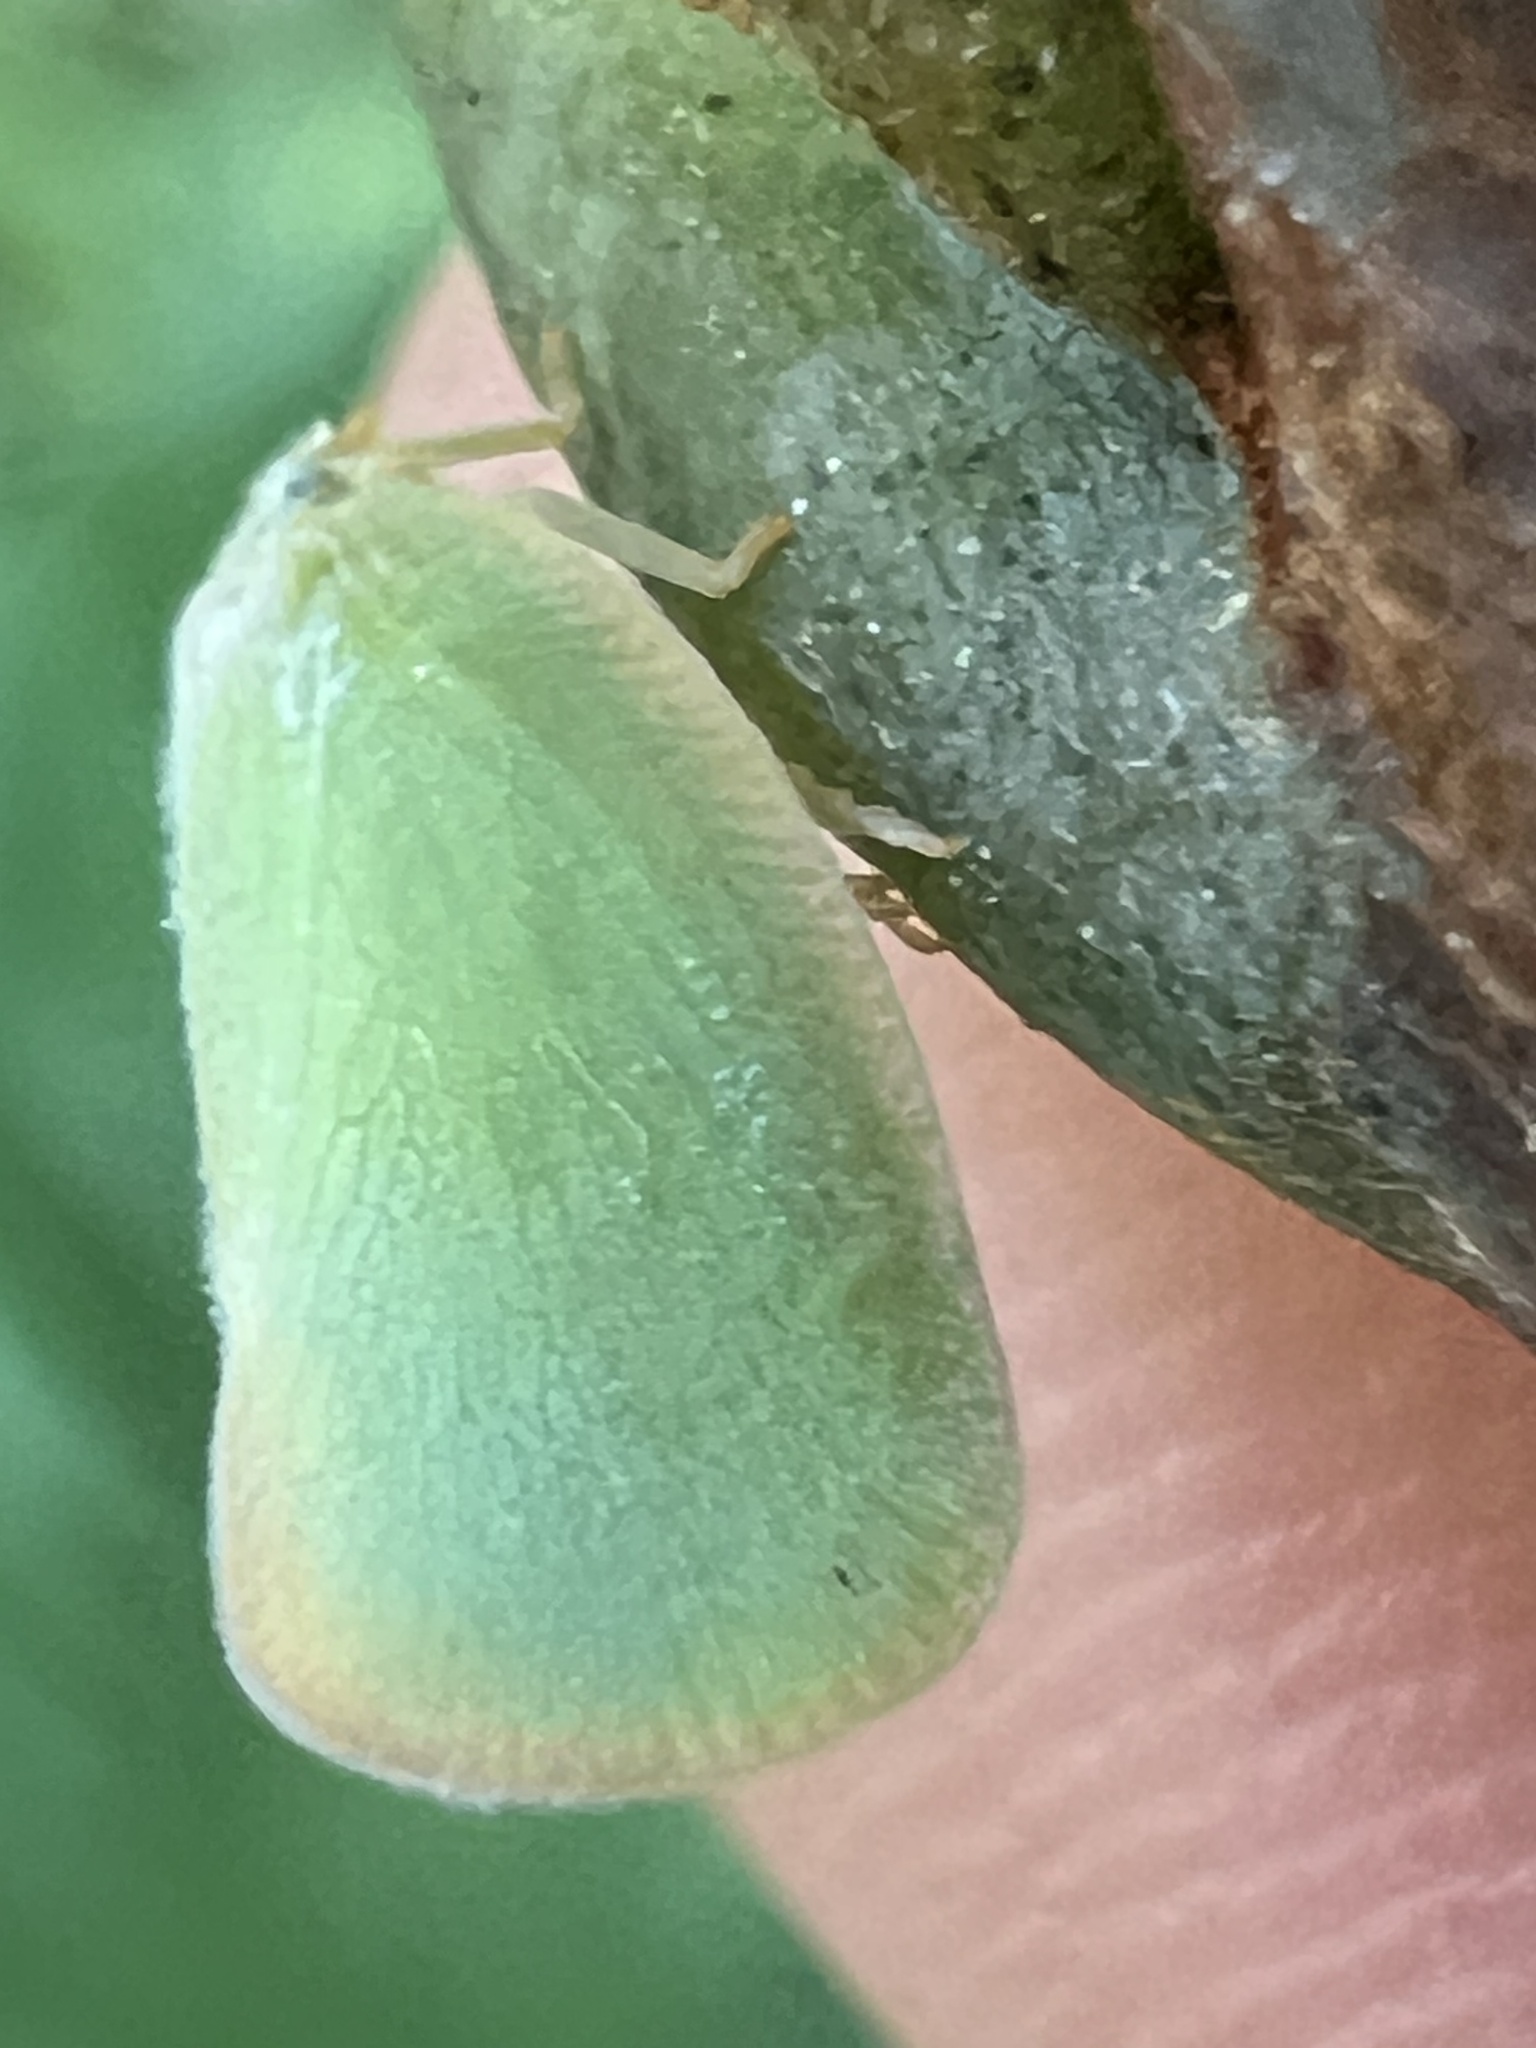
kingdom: Animalia
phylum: Arthropoda
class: Insecta
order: Hemiptera
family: Flatidae
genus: Ormenoides
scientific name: Ormenoides venusta
